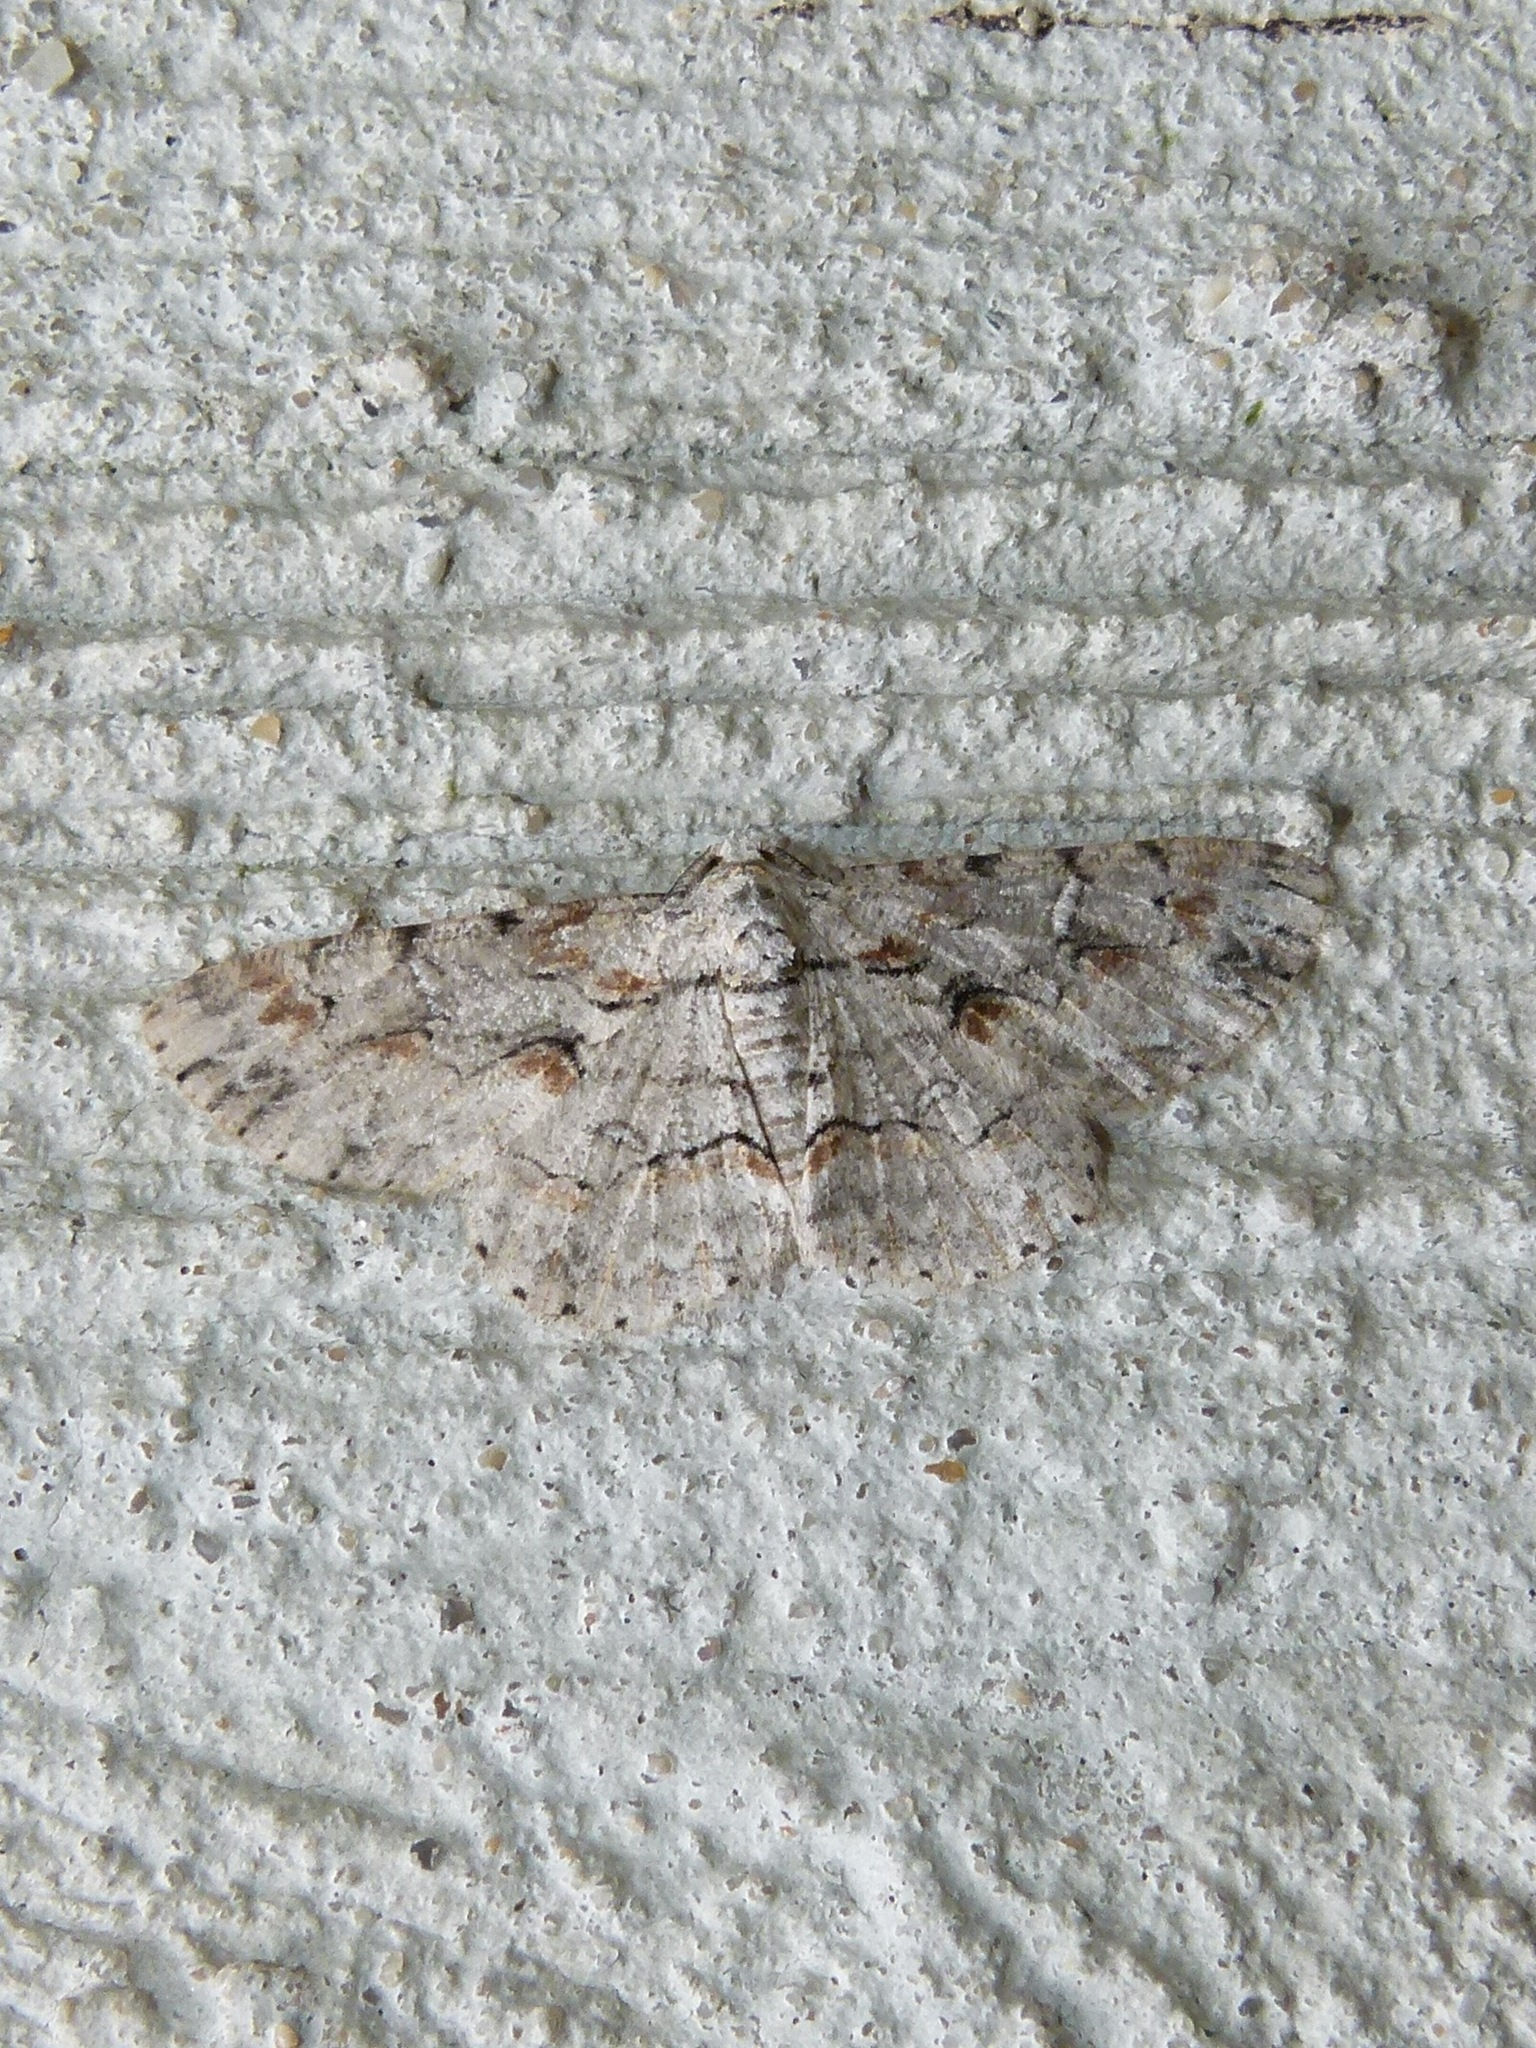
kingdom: Animalia
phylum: Arthropoda
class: Insecta
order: Lepidoptera
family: Geometridae
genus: Iridopsis
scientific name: Iridopsis defectaria
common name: Brown-shaded gray
